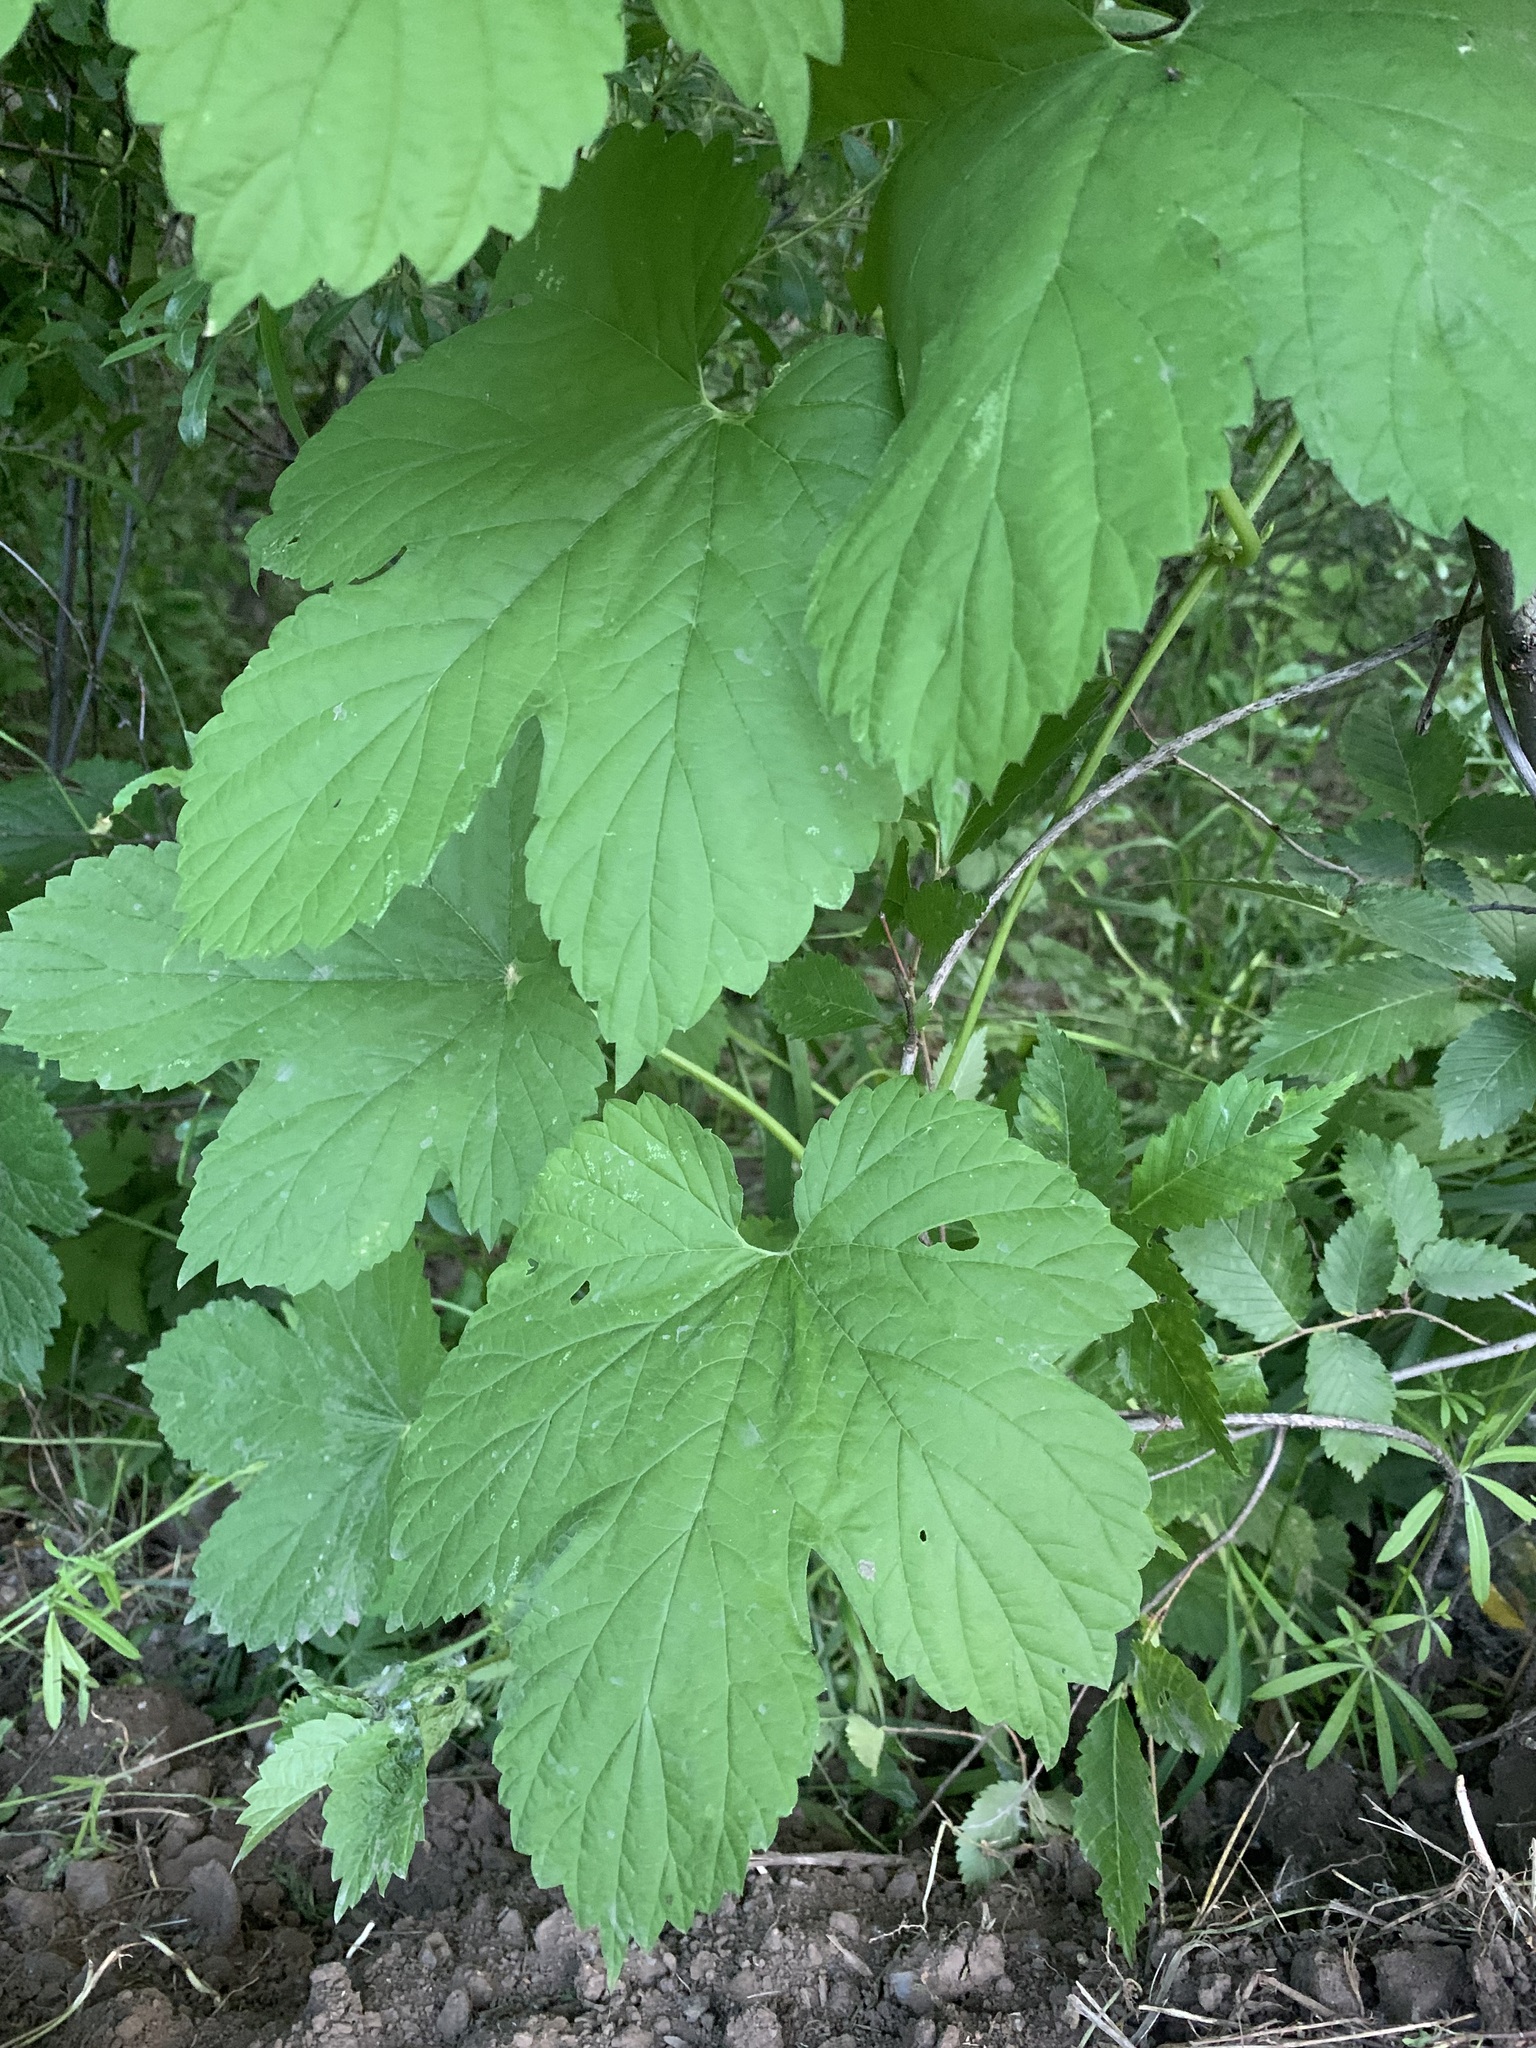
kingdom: Plantae
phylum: Tracheophyta
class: Magnoliopsida
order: Rosales
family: Cannabaceae
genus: Humulus
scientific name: Humulus lupulus
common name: Hop
